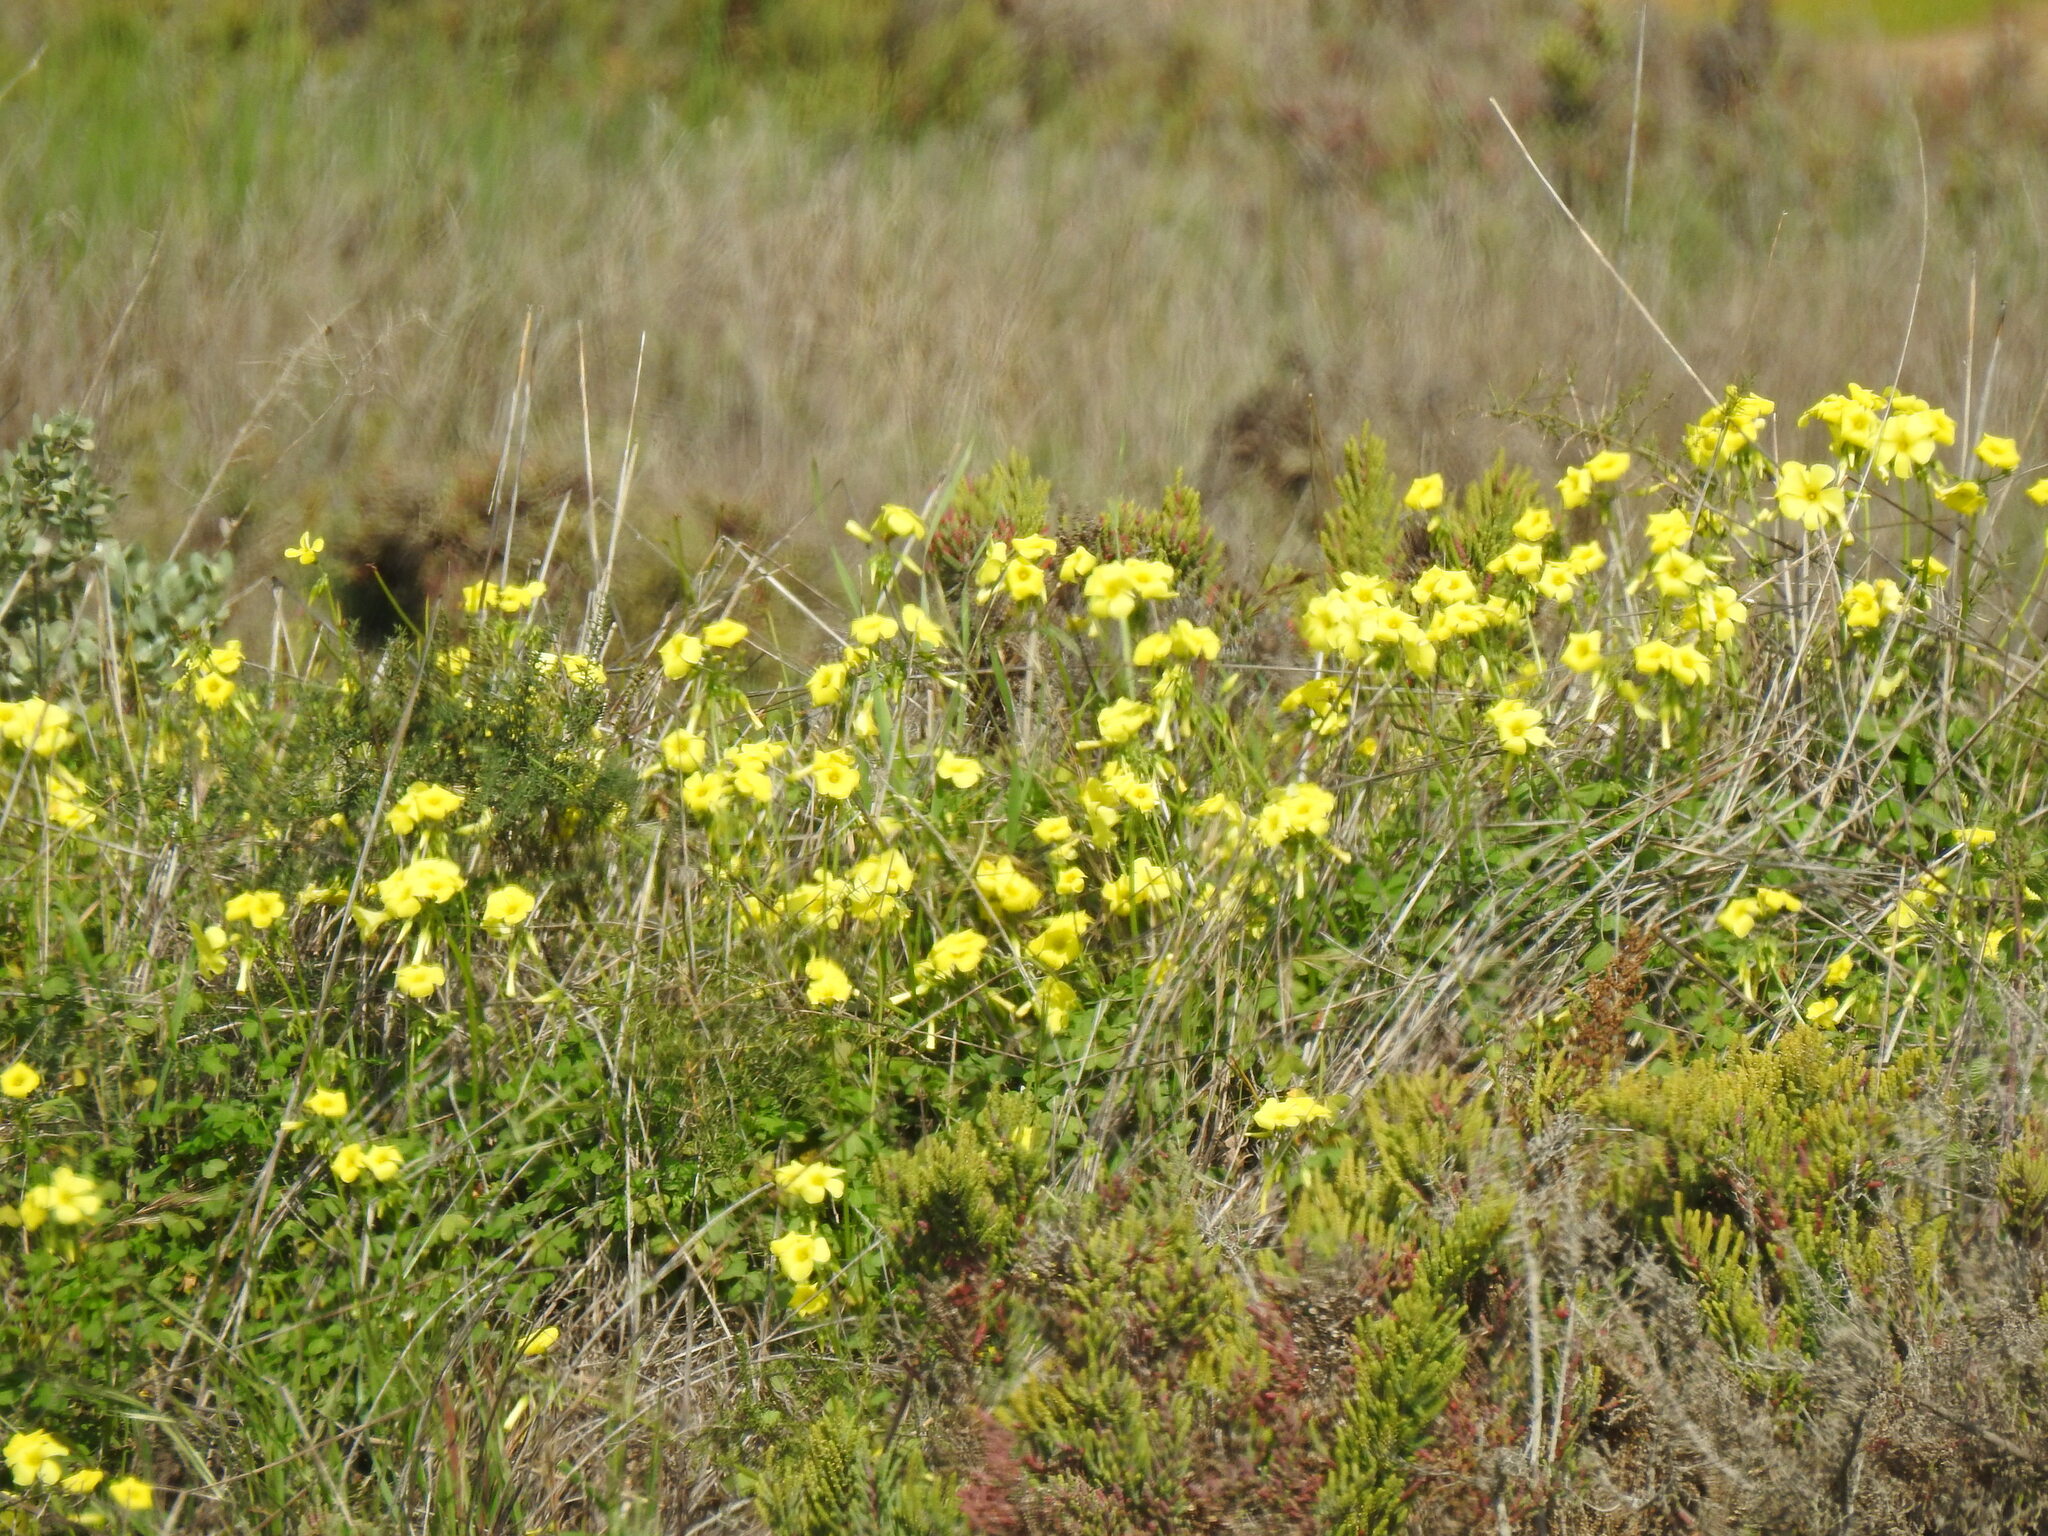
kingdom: Plantae
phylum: Tracheophyta
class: Magnoliopsida
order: Oxalidales
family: Oxalidaceae
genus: Oxalis
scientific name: Oxalis pes-caprae
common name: Bermuda-buttercup
